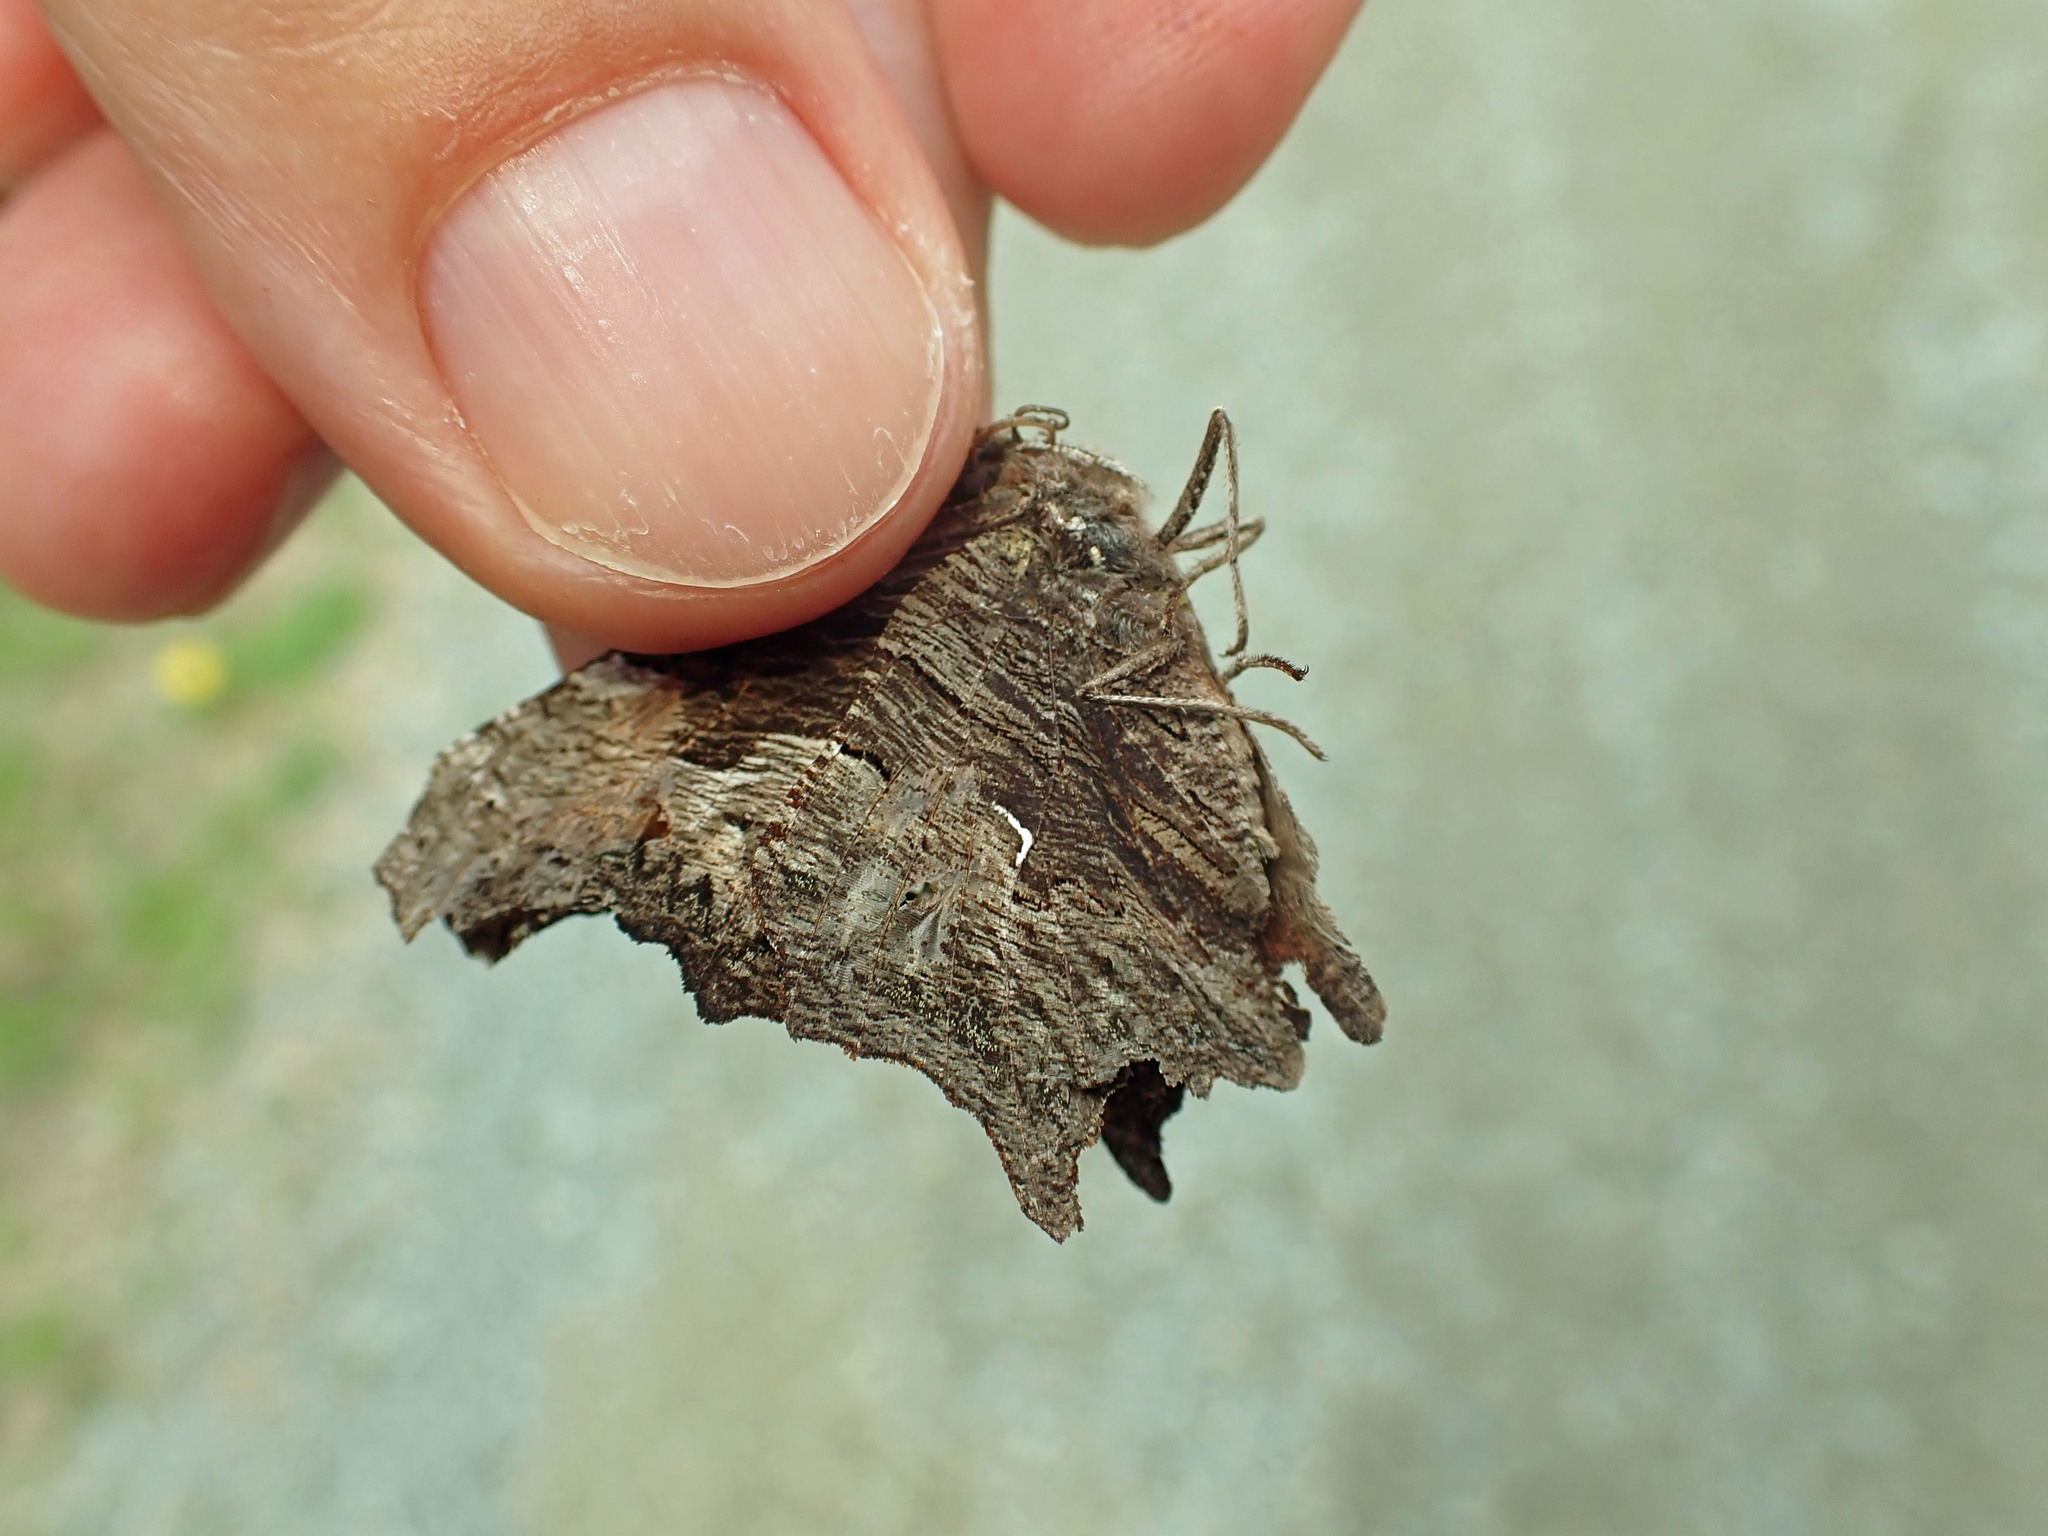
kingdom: Animalia
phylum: Arthropoda
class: Insecta
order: Lepidoptera
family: Nymphalidae
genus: Polygonia
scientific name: Polygonia progne
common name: Gray comma
